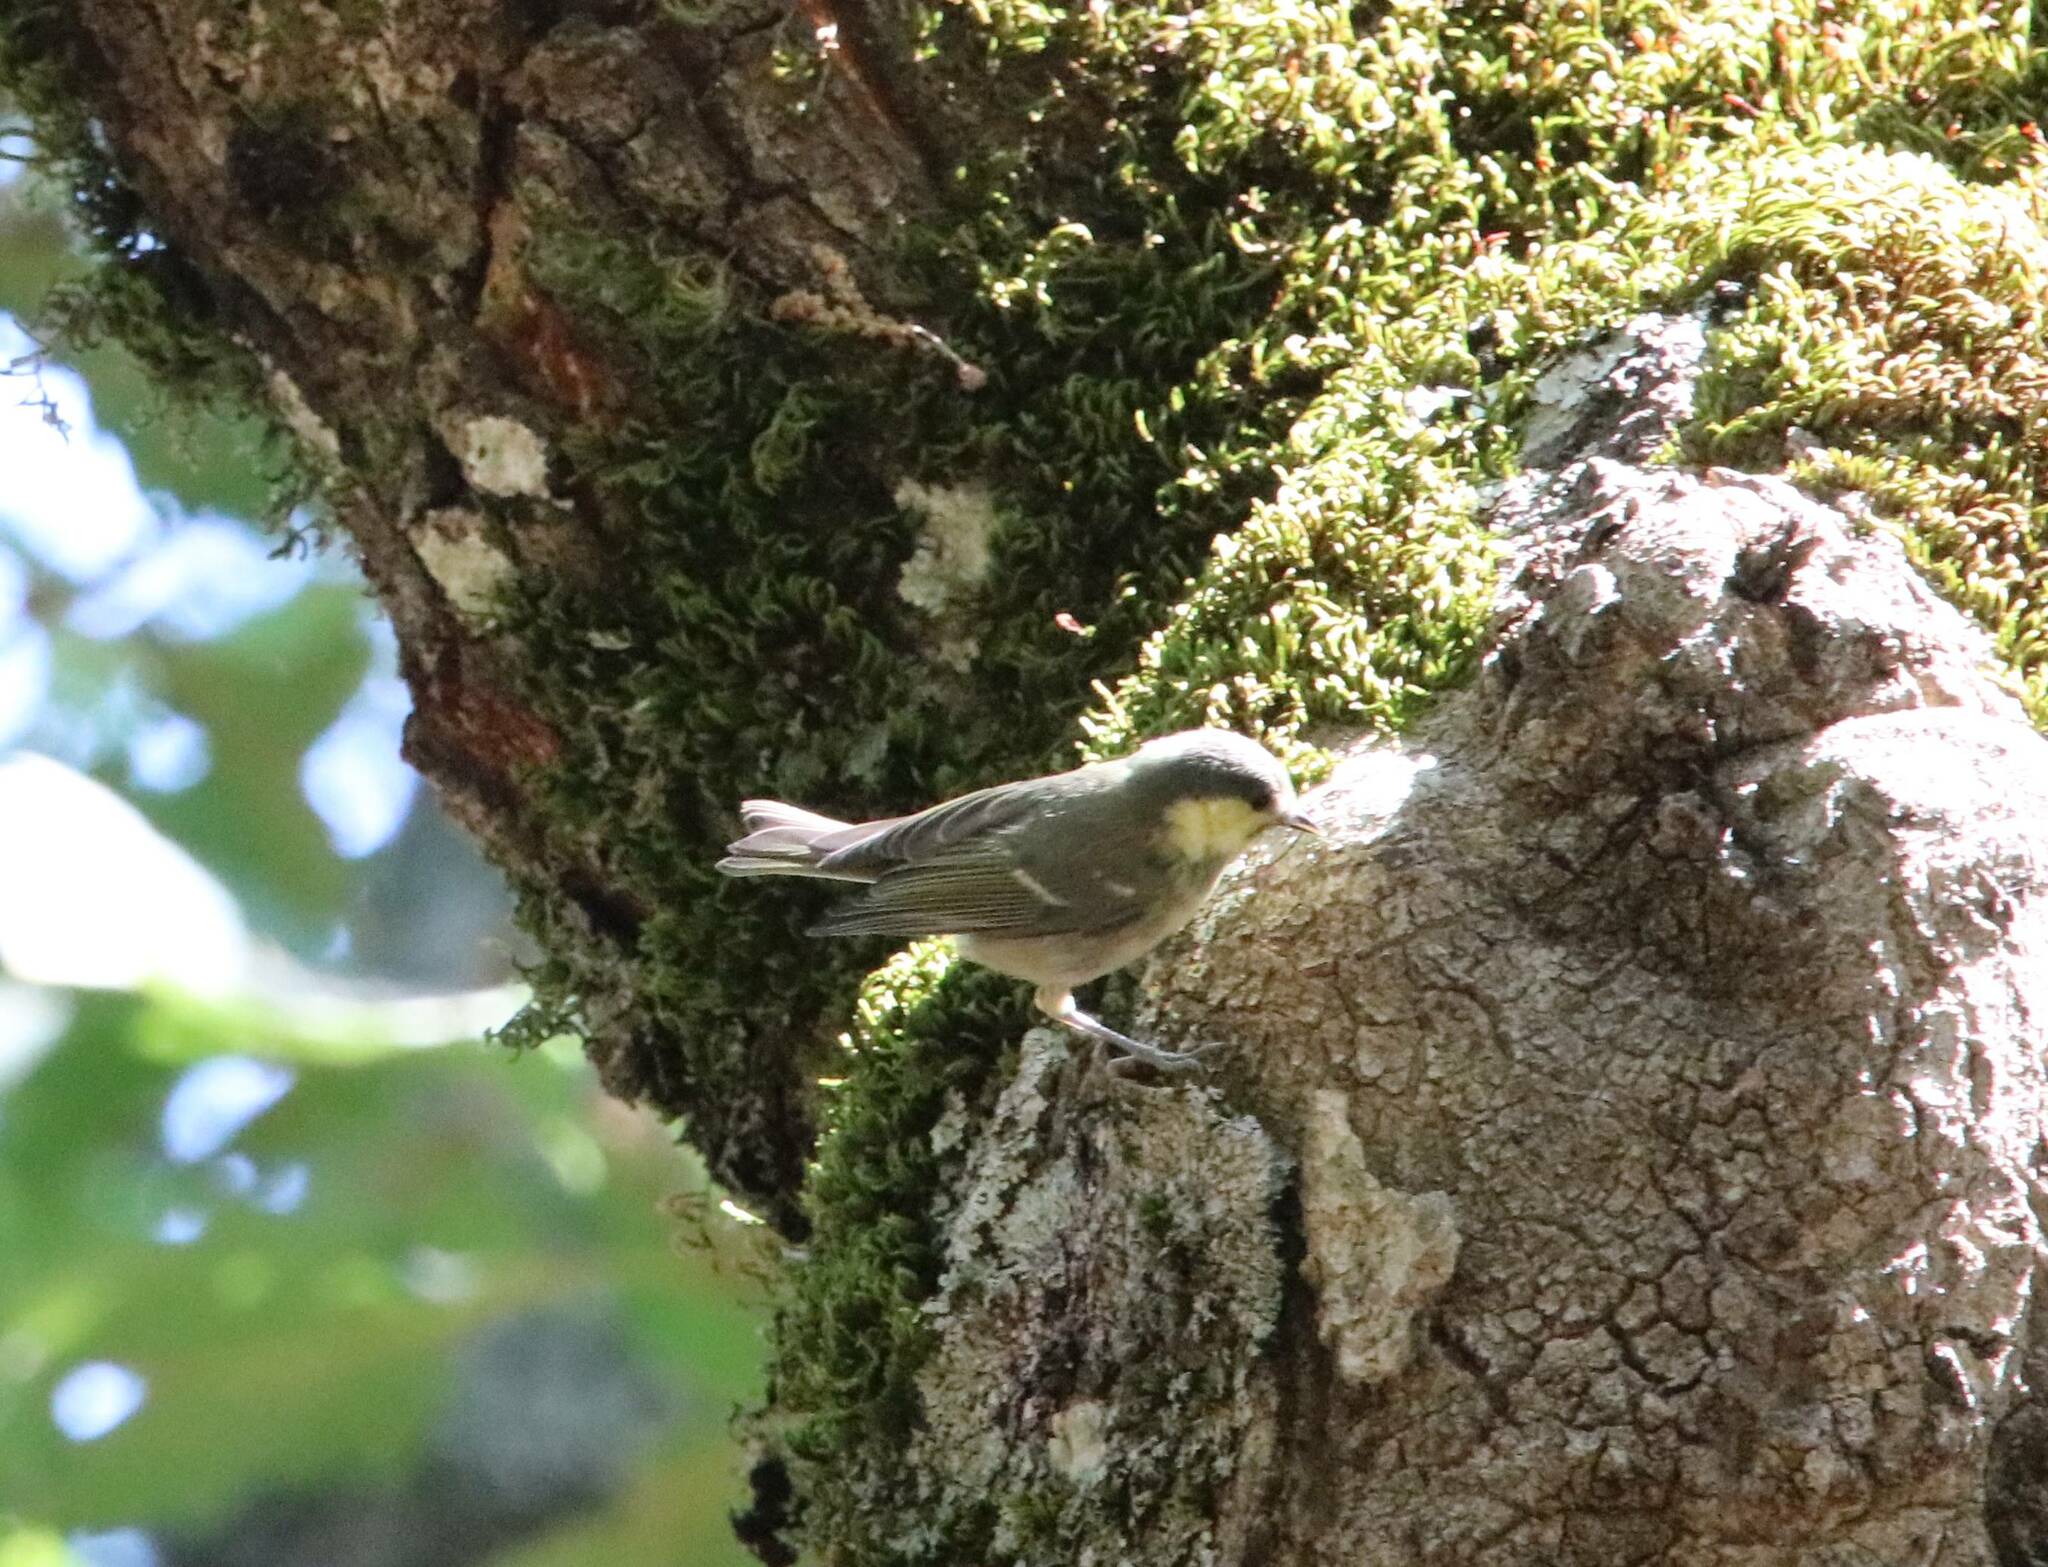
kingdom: Animalia
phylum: Chordata
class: Aves
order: Passeriformes
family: Paridae
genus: Periparus
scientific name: Periparus ater
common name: Coal tit
